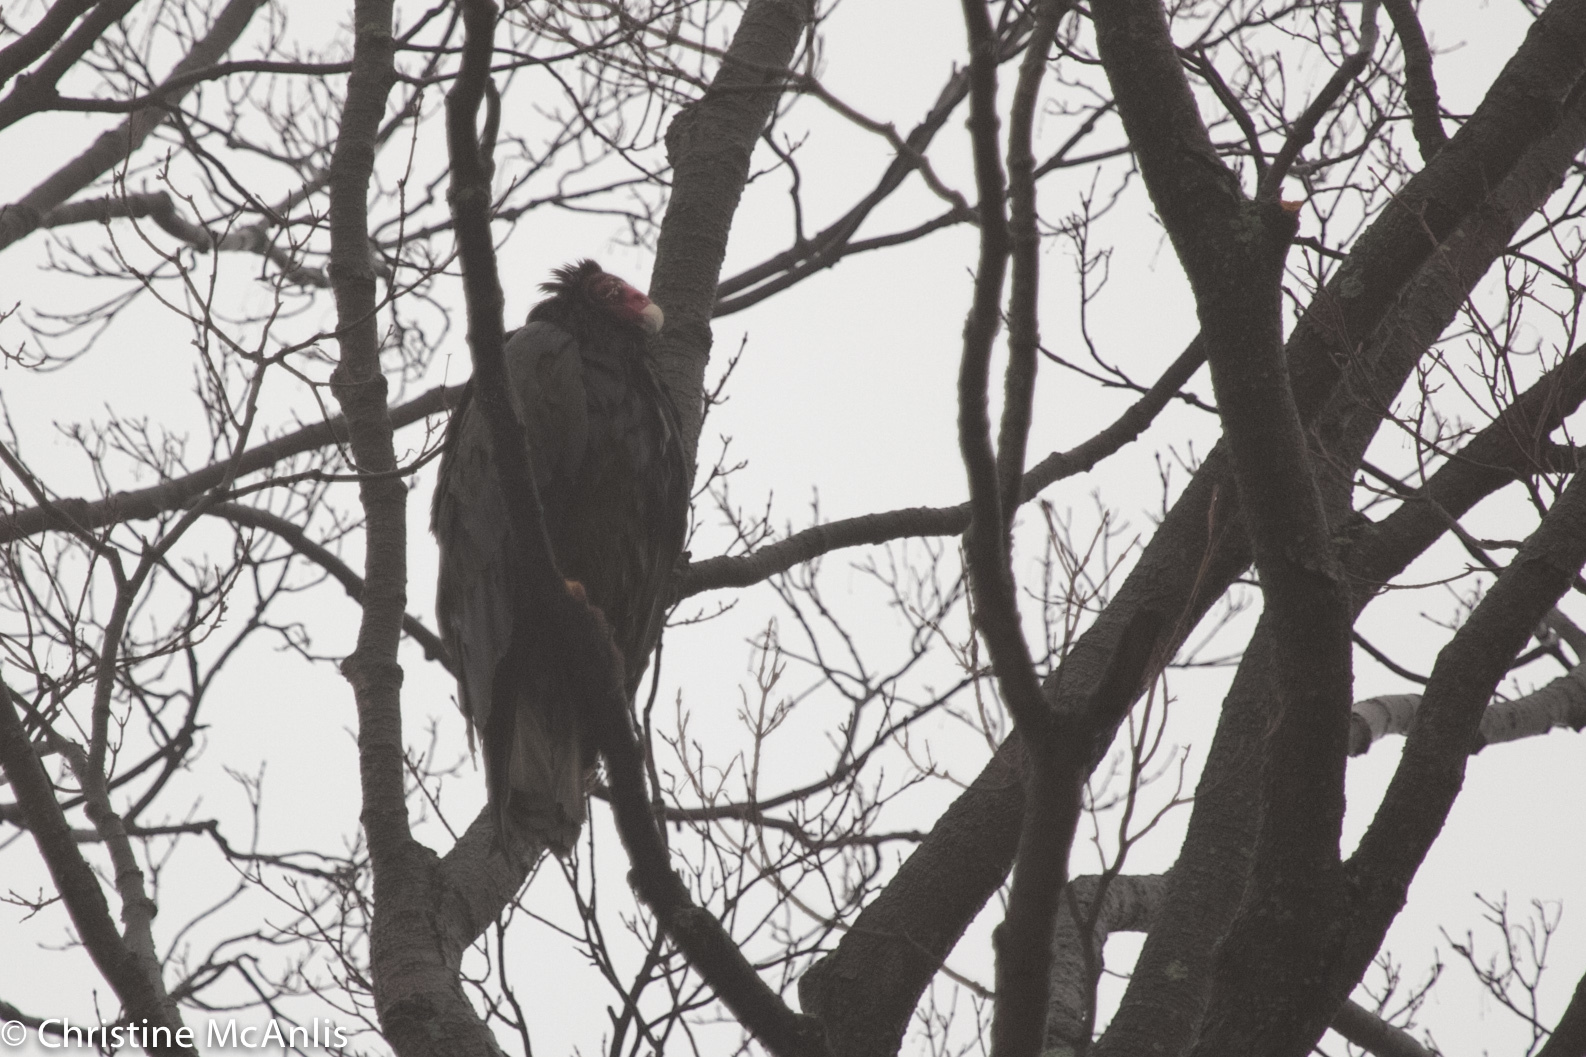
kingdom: Animalia
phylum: Chordata
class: Aves
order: Accipitriformes
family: Cathartidae
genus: Cathartes
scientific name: Cathartes aura
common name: Turkey vulture
